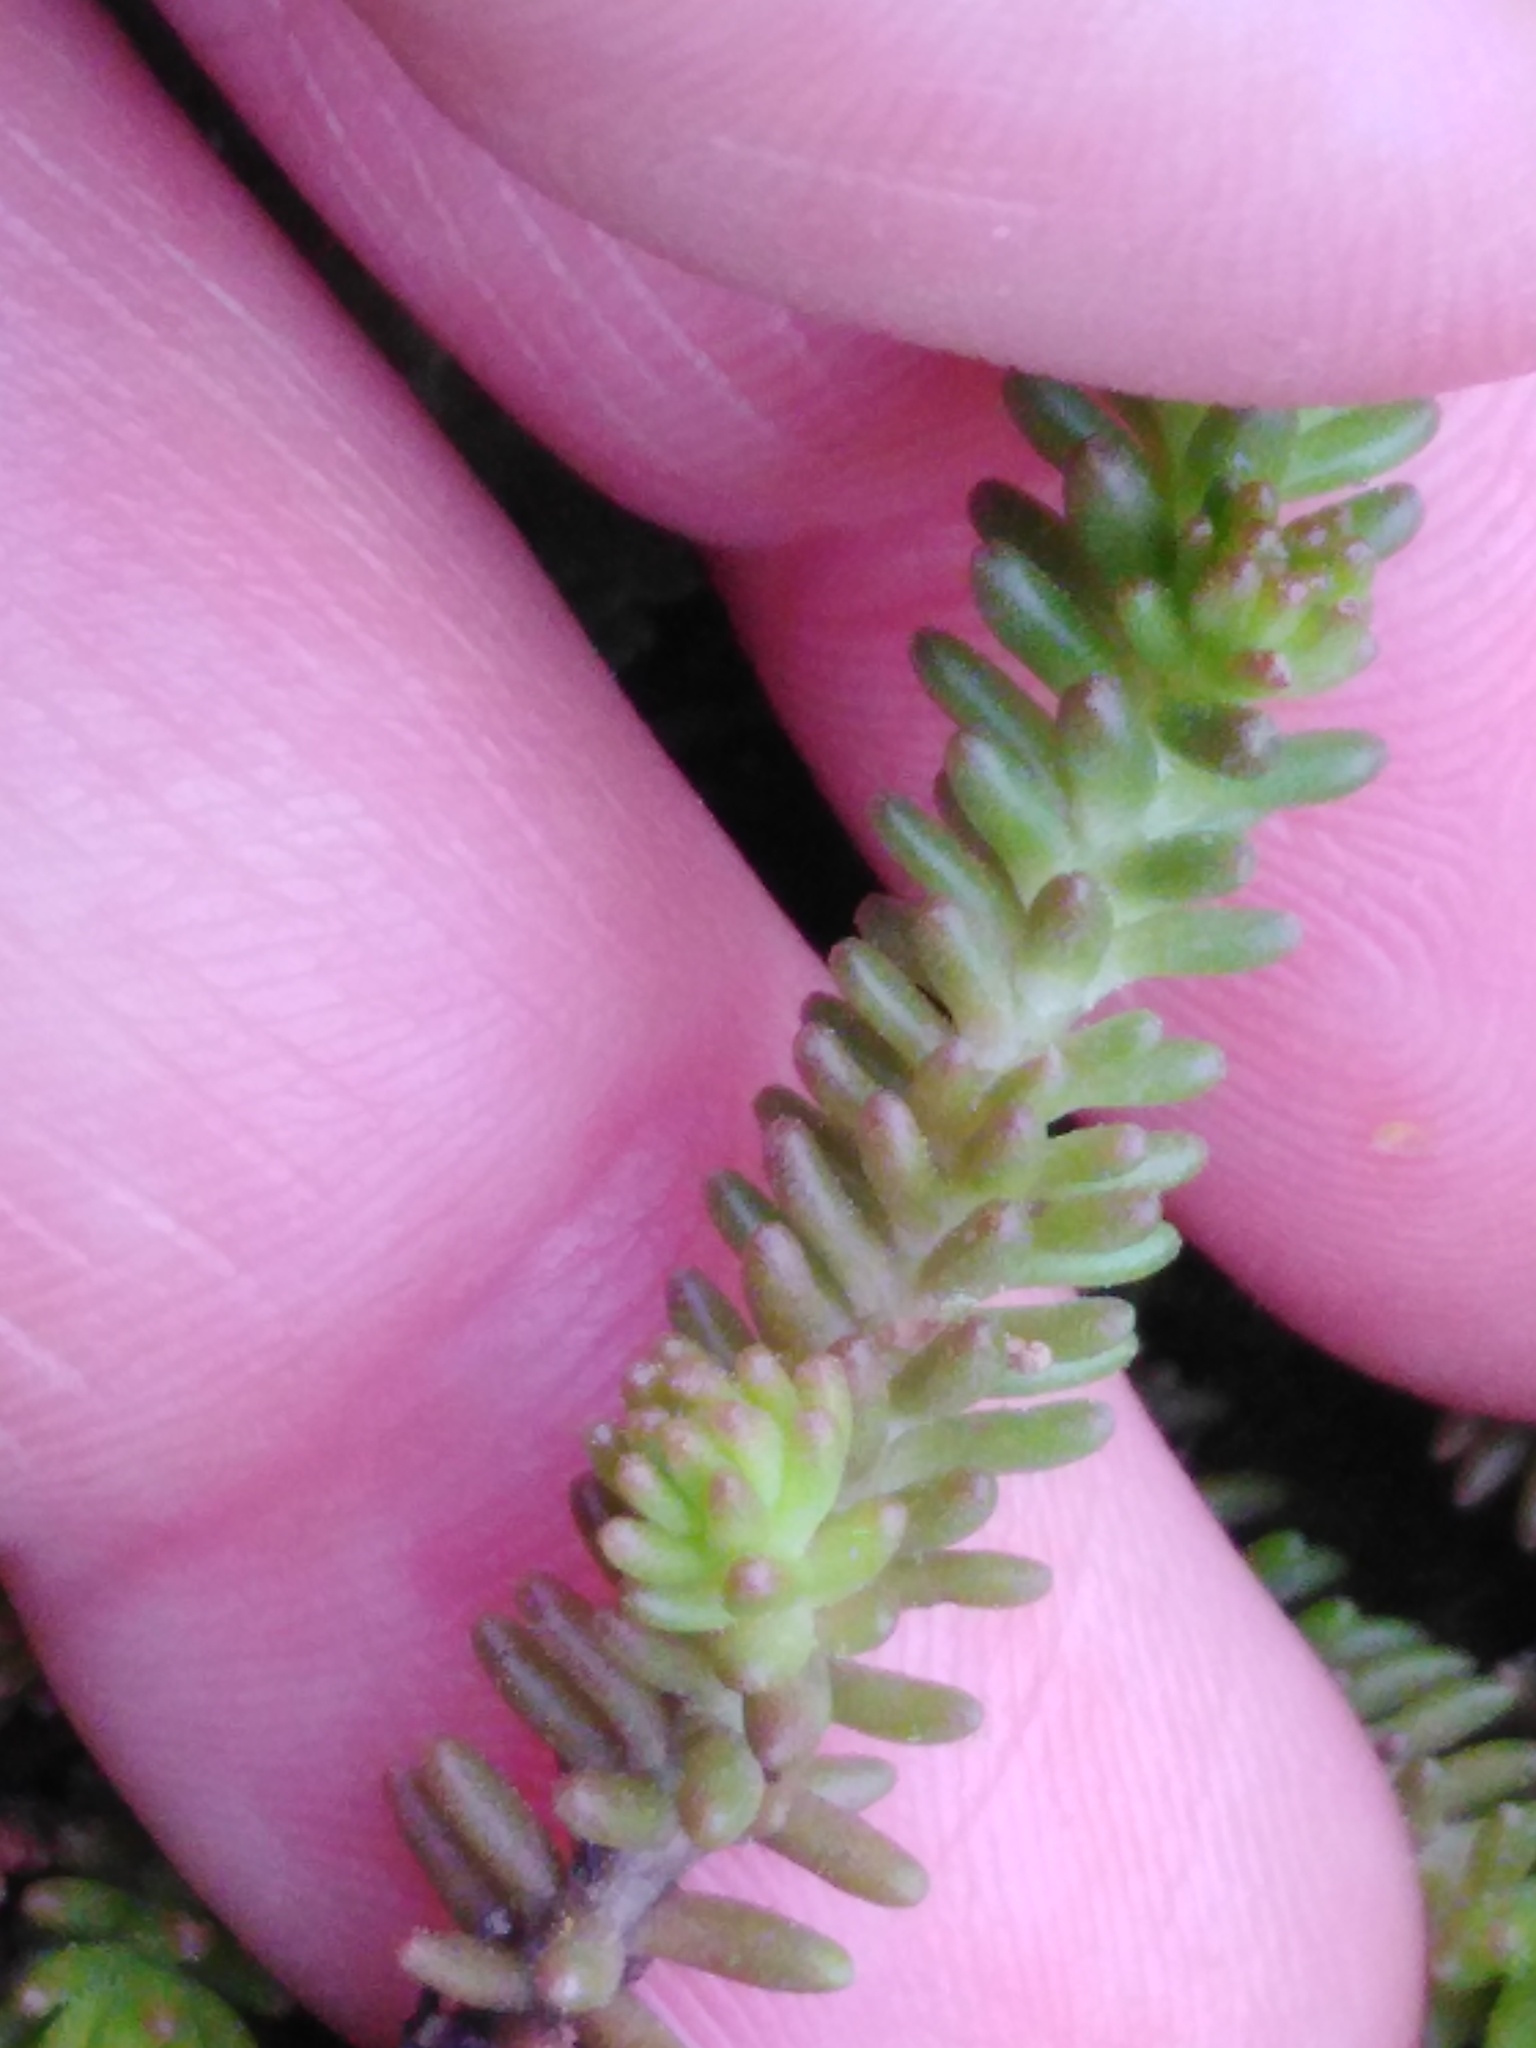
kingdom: Plantae
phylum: Tracheophyta
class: Magnoliopsida
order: Saxifragales
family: Crassulaceae
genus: Sedum
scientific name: Sedum sexangulare
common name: Tasteless stonecrop
